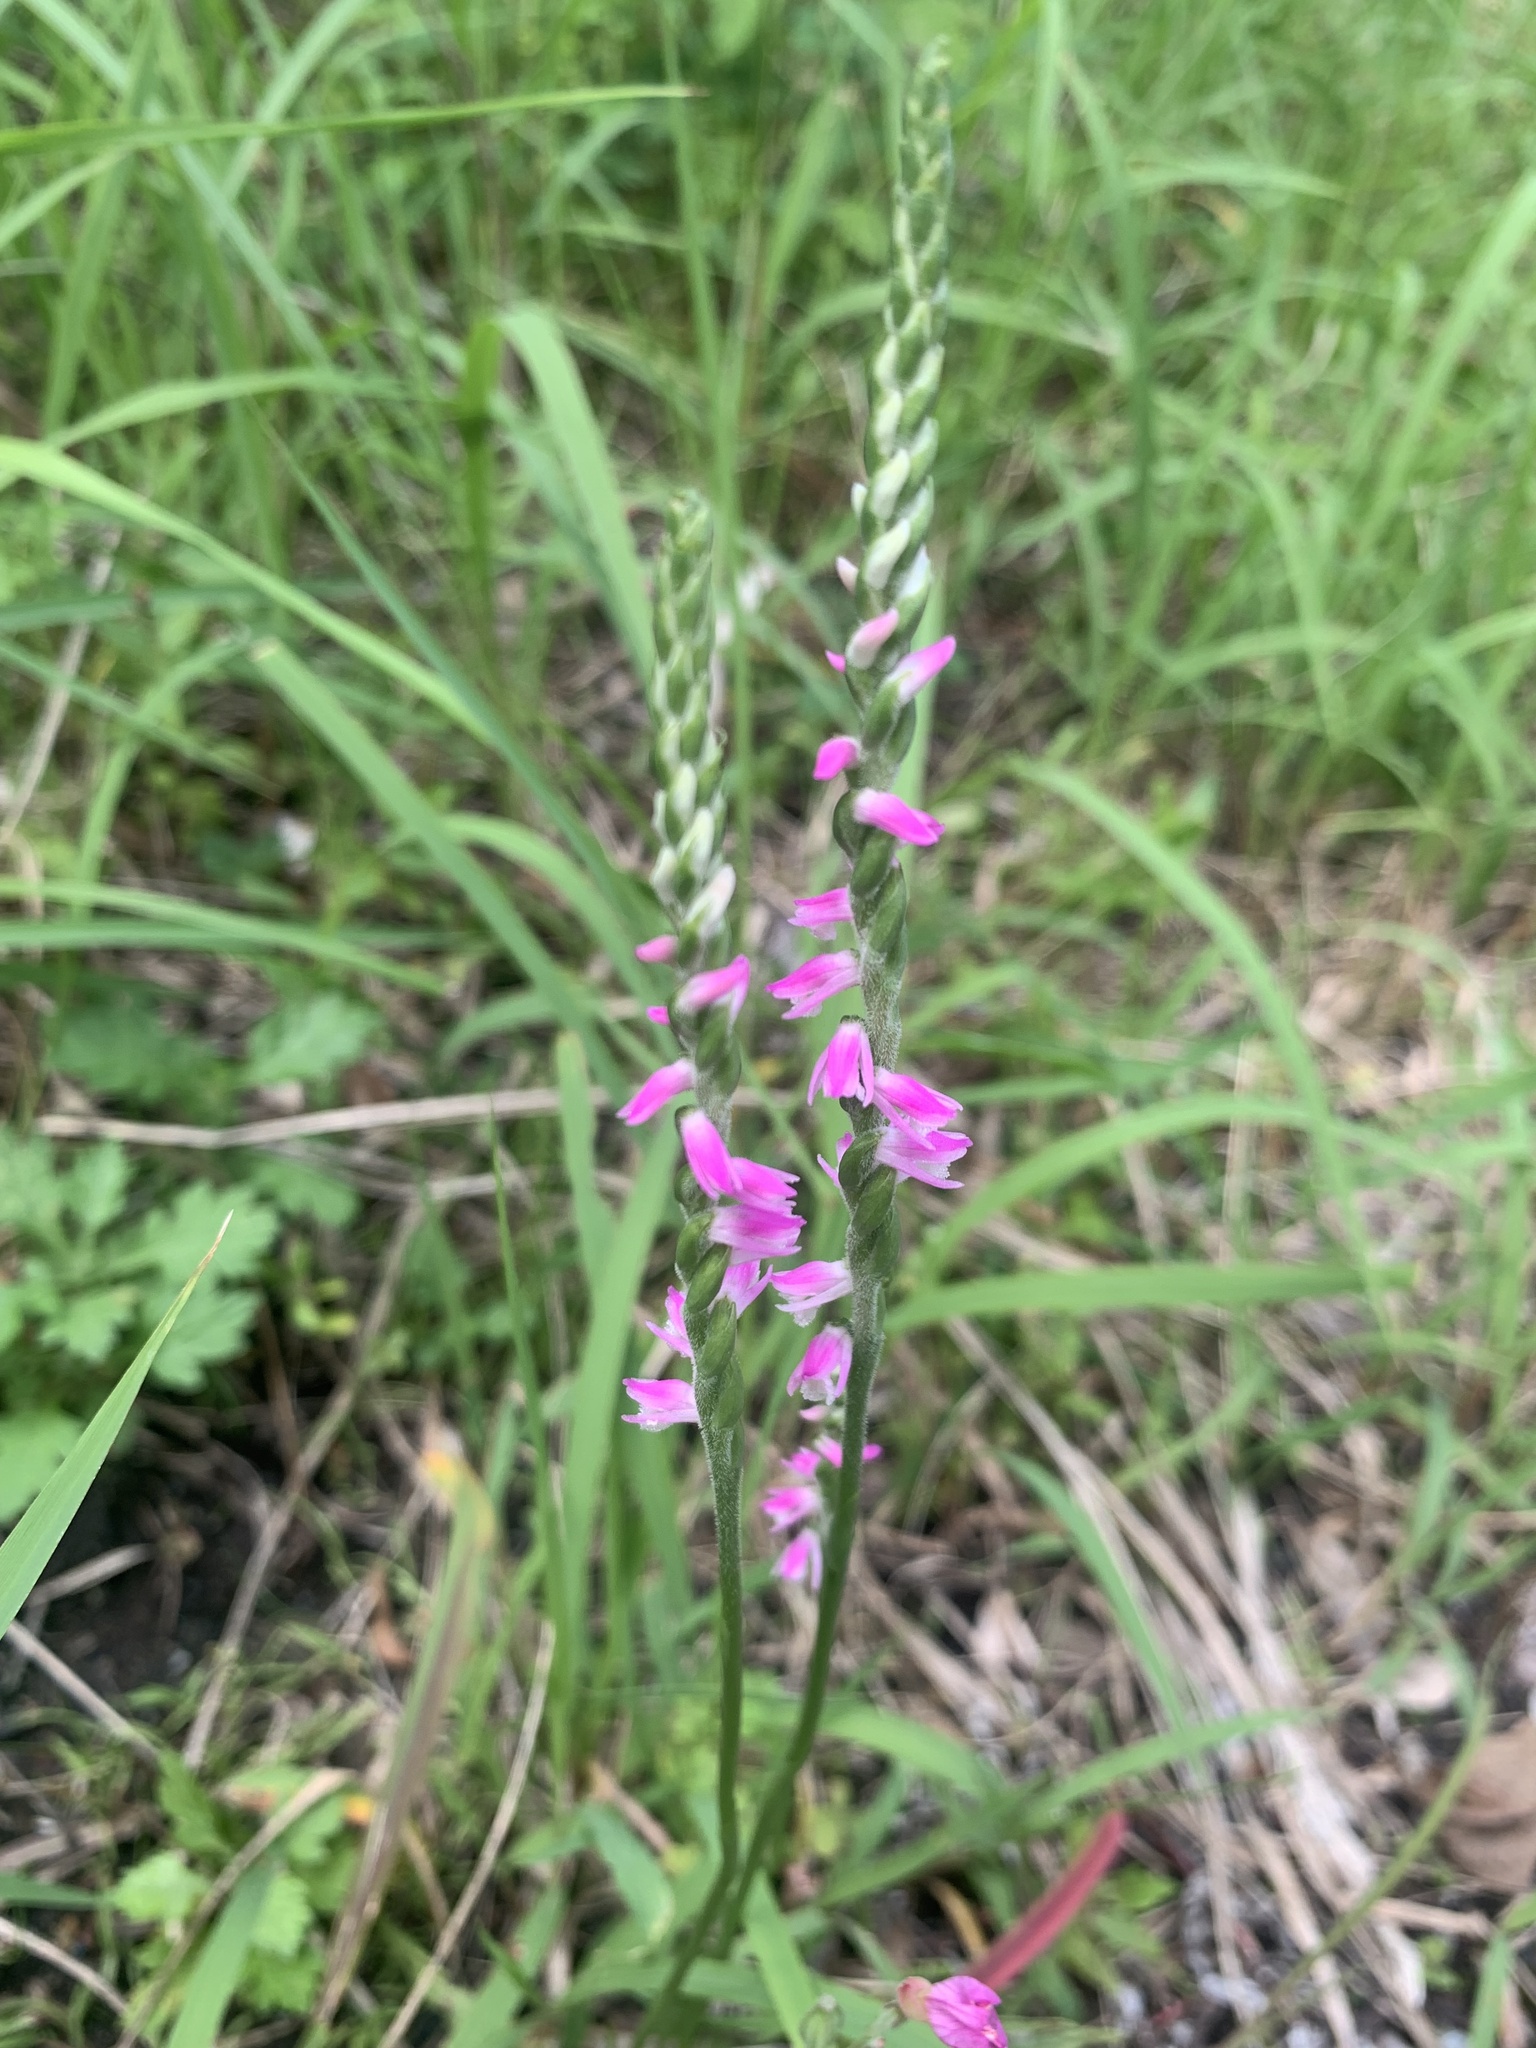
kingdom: Plantae
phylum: Tracheophyta
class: Liliopsida
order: Asparagales
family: Orchidaceae
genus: Spiranthes
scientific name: Spiranthes australis
